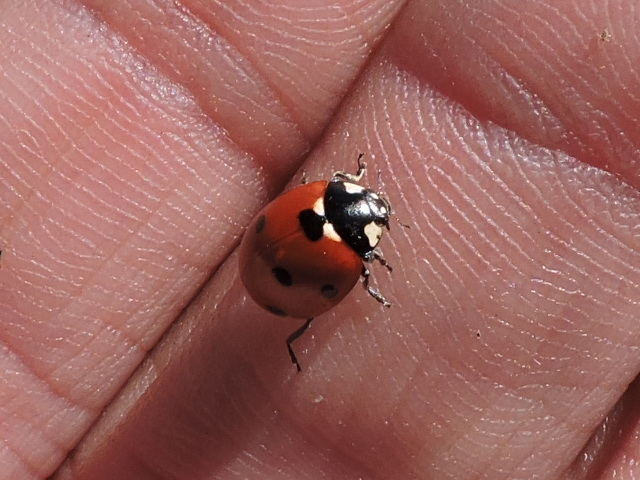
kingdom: Animalia
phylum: Arthropoda
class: Insecta
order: Coleoptera
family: Coccinellidae
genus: Coccinella
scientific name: Coccinella septempunctata
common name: Sevenspotted lady beetle
